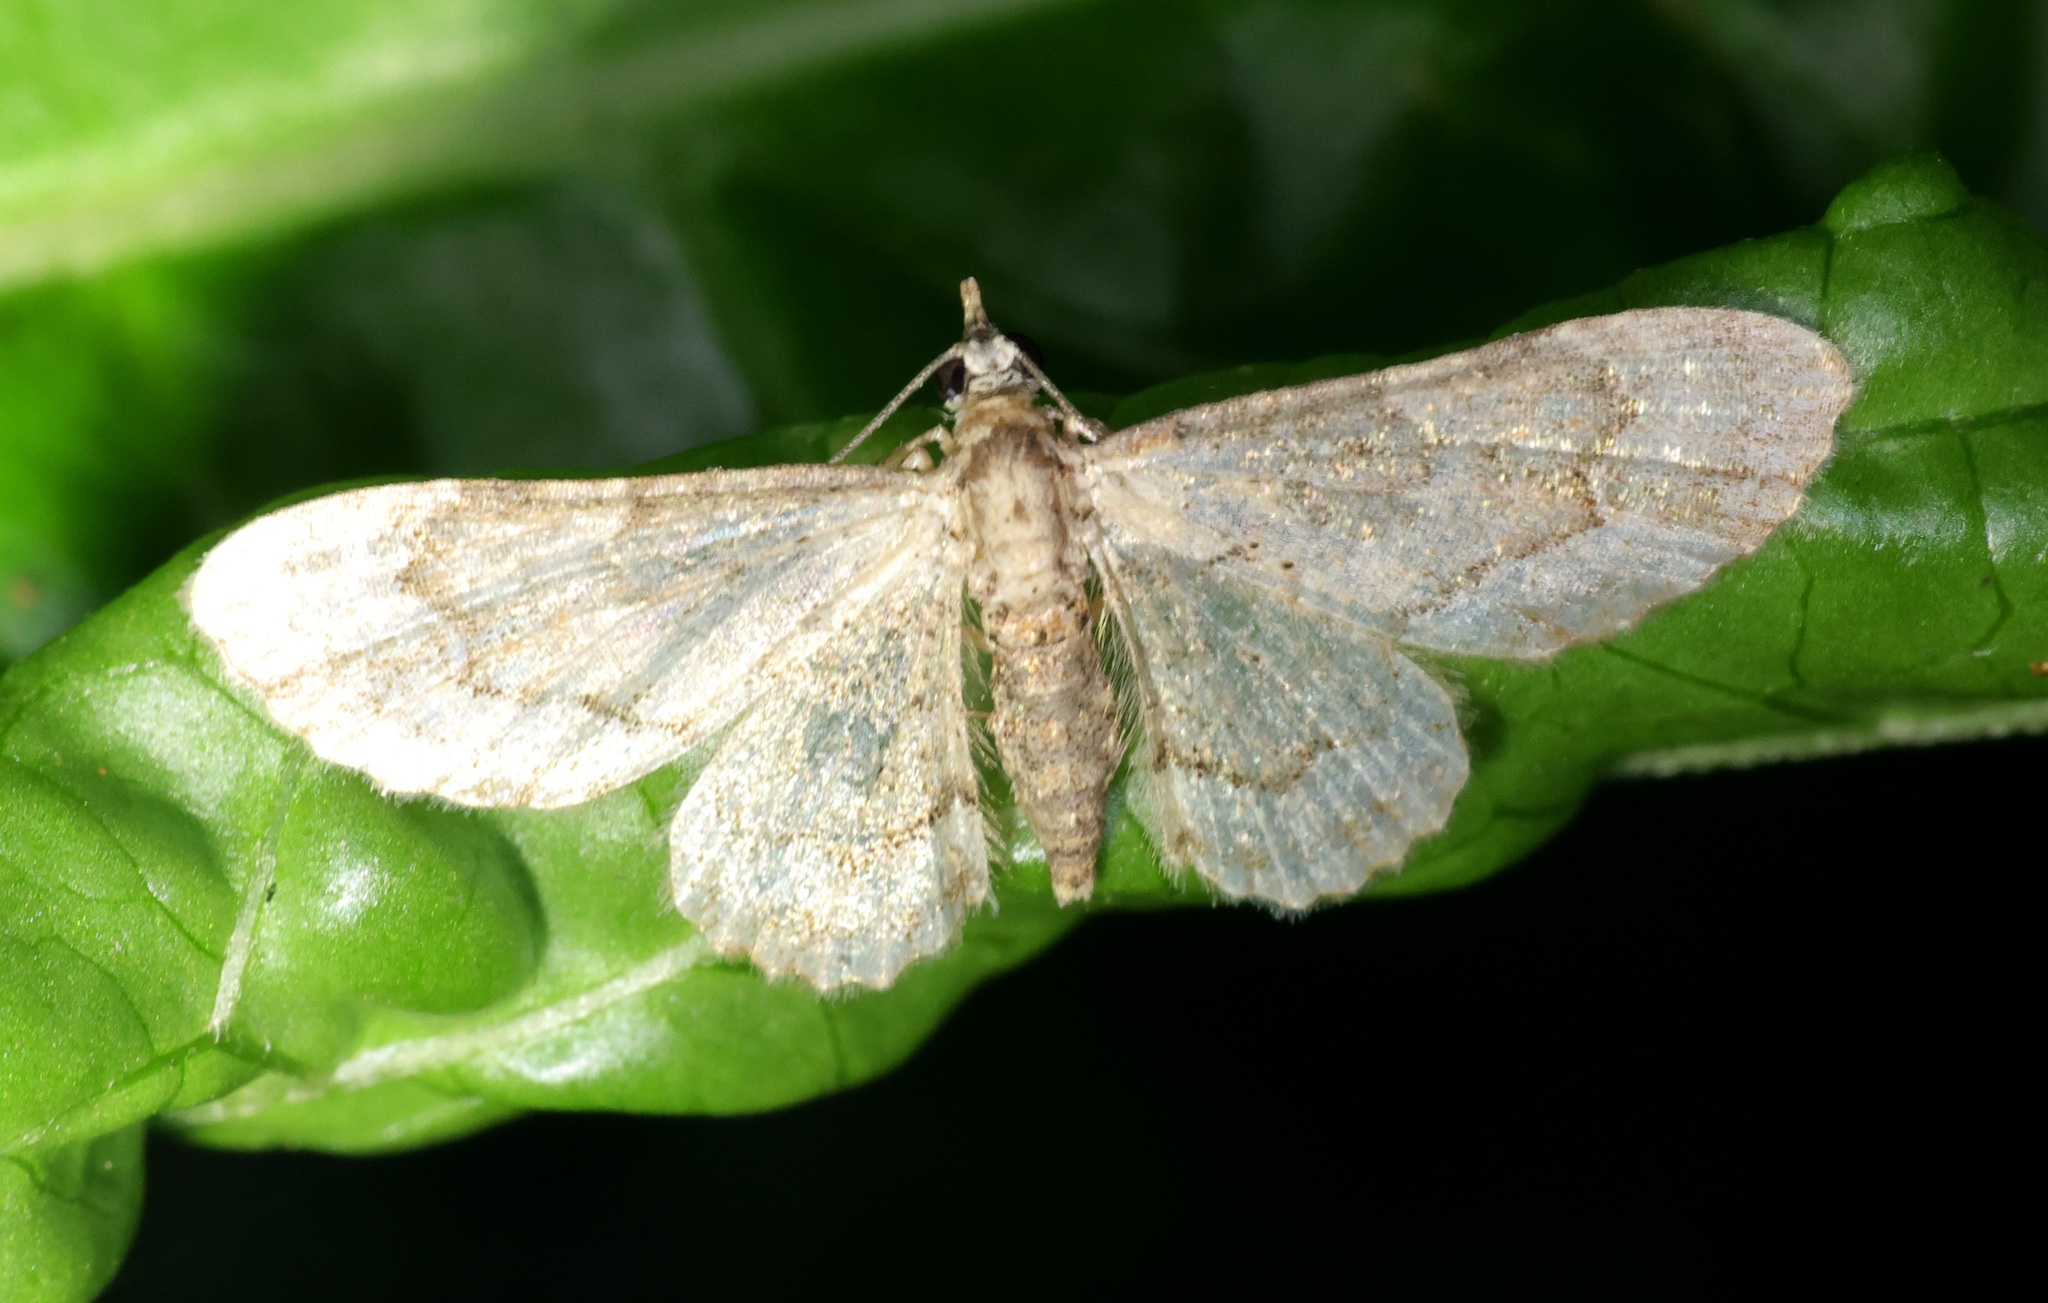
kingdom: Animalia
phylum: Arthropoda
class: Insecta
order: Lepidoptera
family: Geometridae
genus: Gymnoscelis
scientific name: Gymnoscelis biangulata
